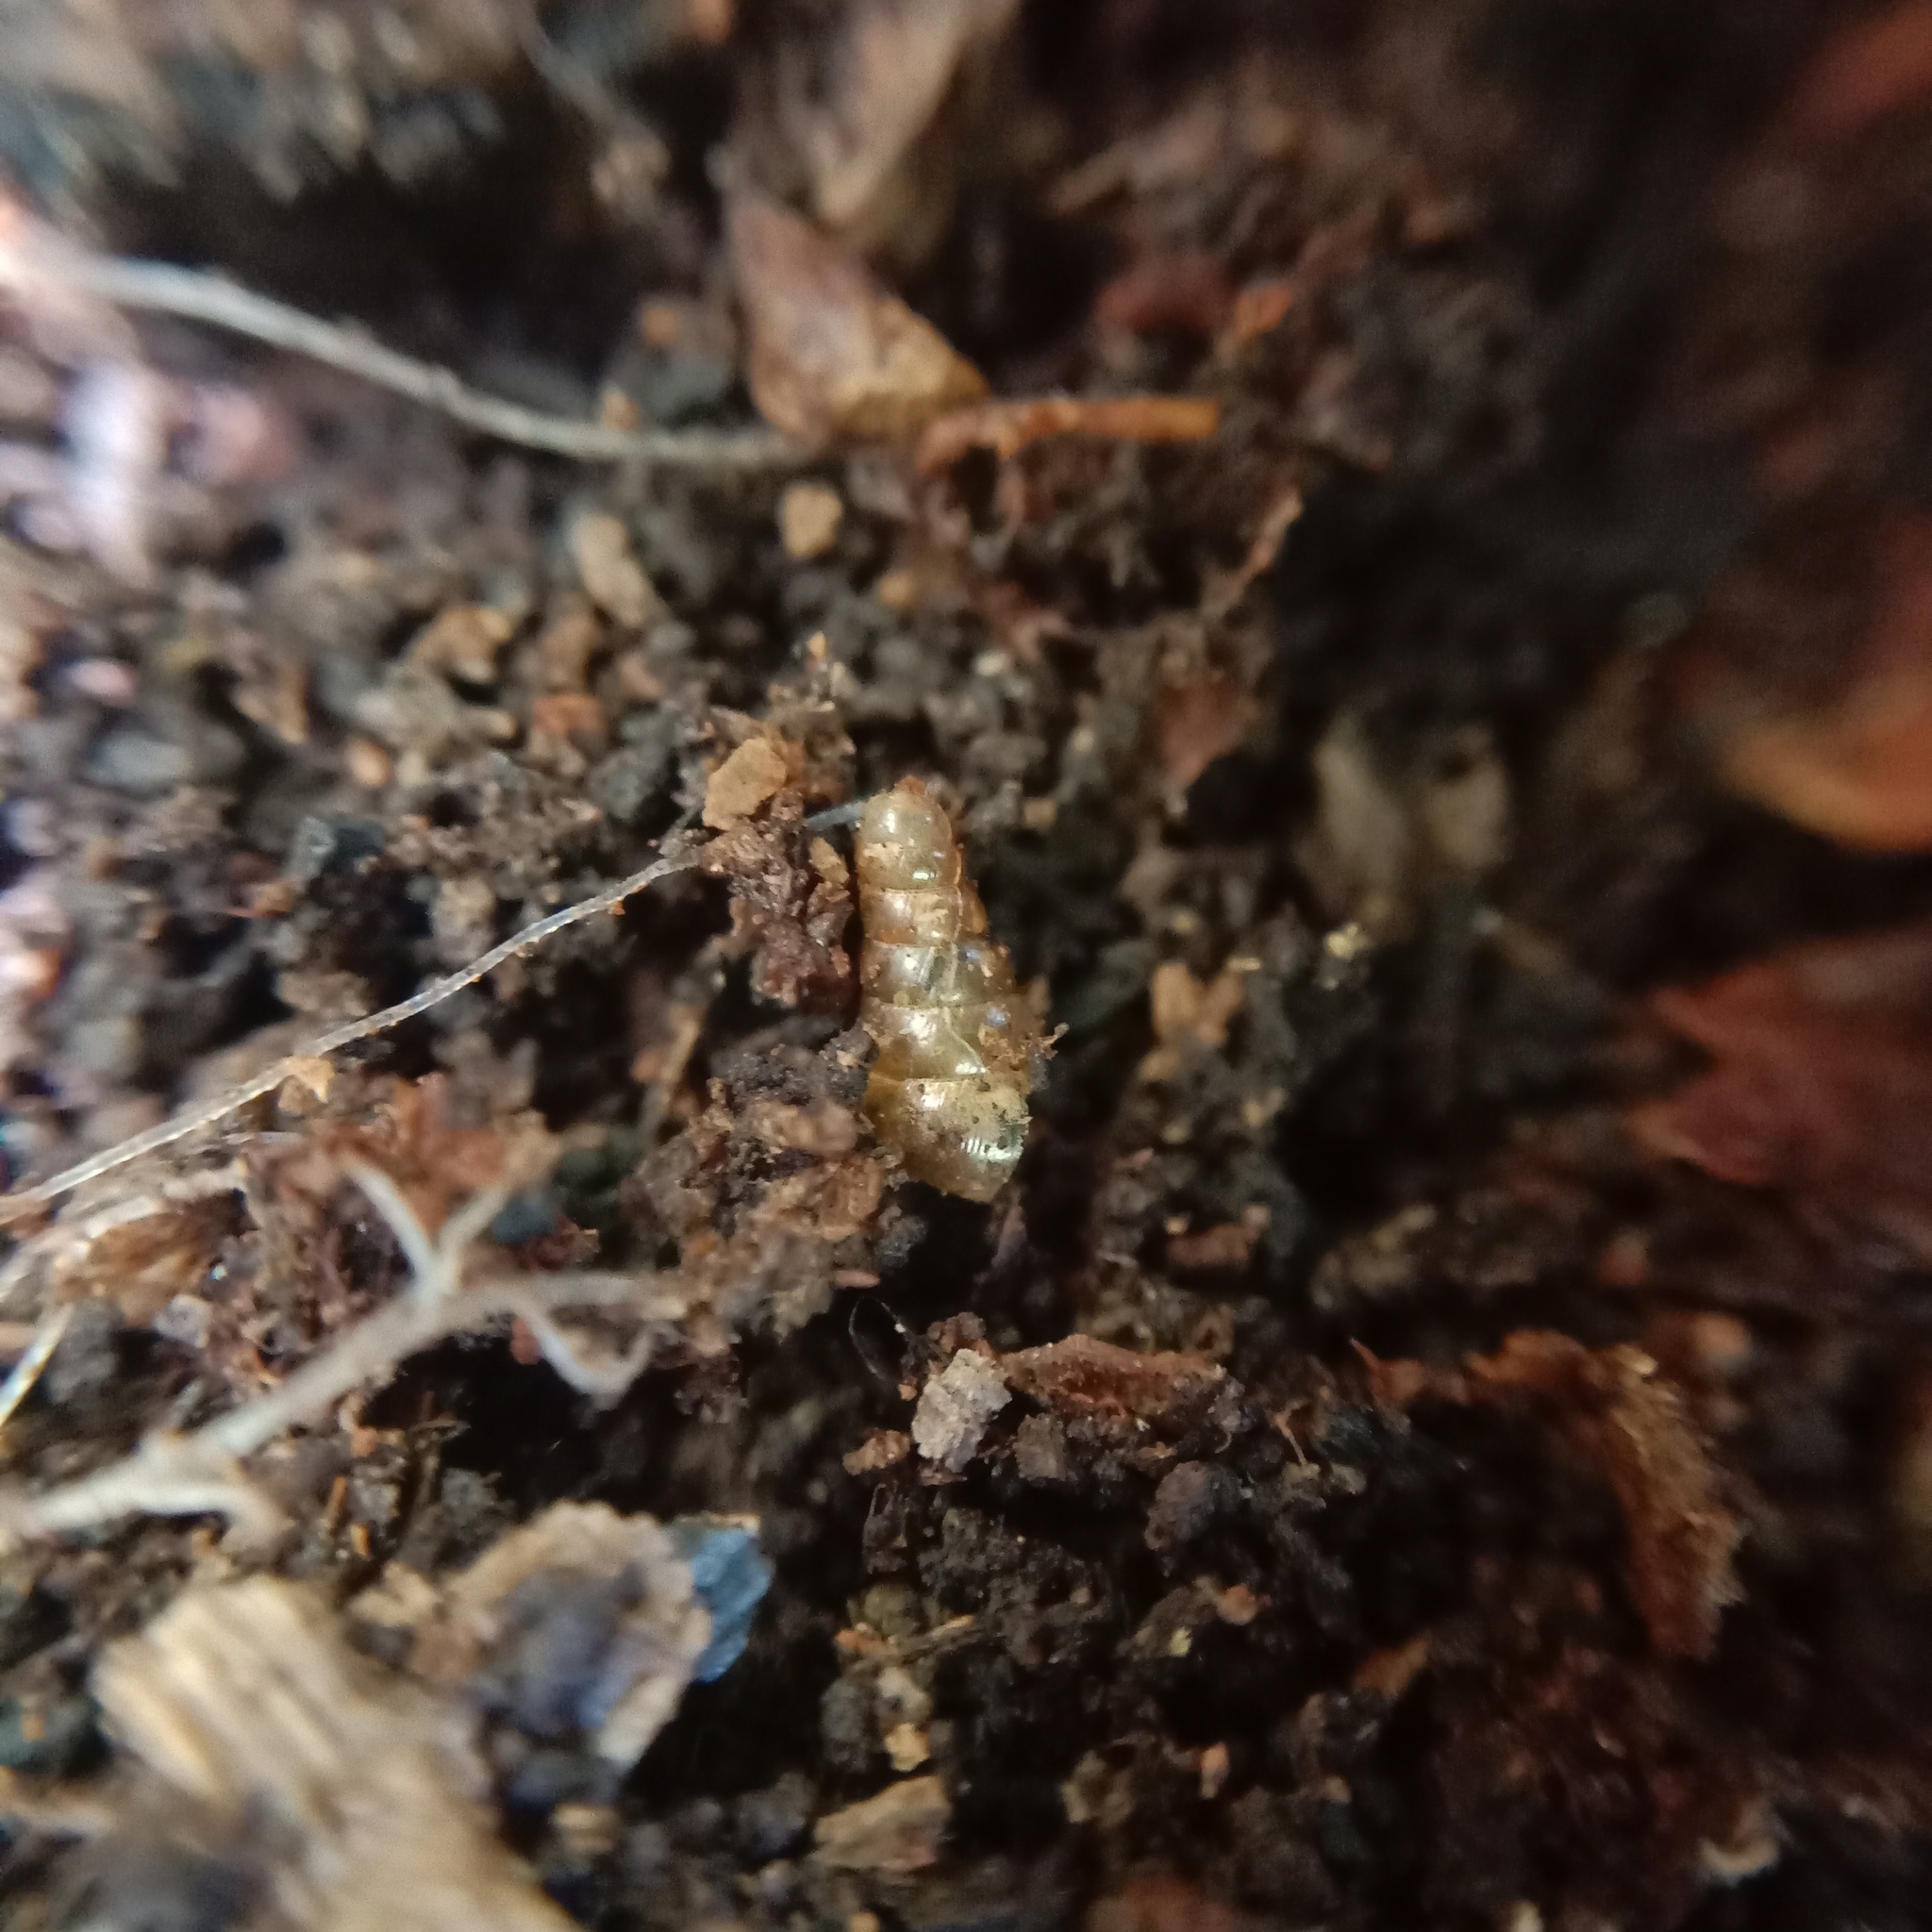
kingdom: Animalia
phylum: Mollusca
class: Gastropoda
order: Stylommatophora
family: Clausiliidae
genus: Cochlodina
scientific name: Cochlodina laminata
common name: Plaited door snail
